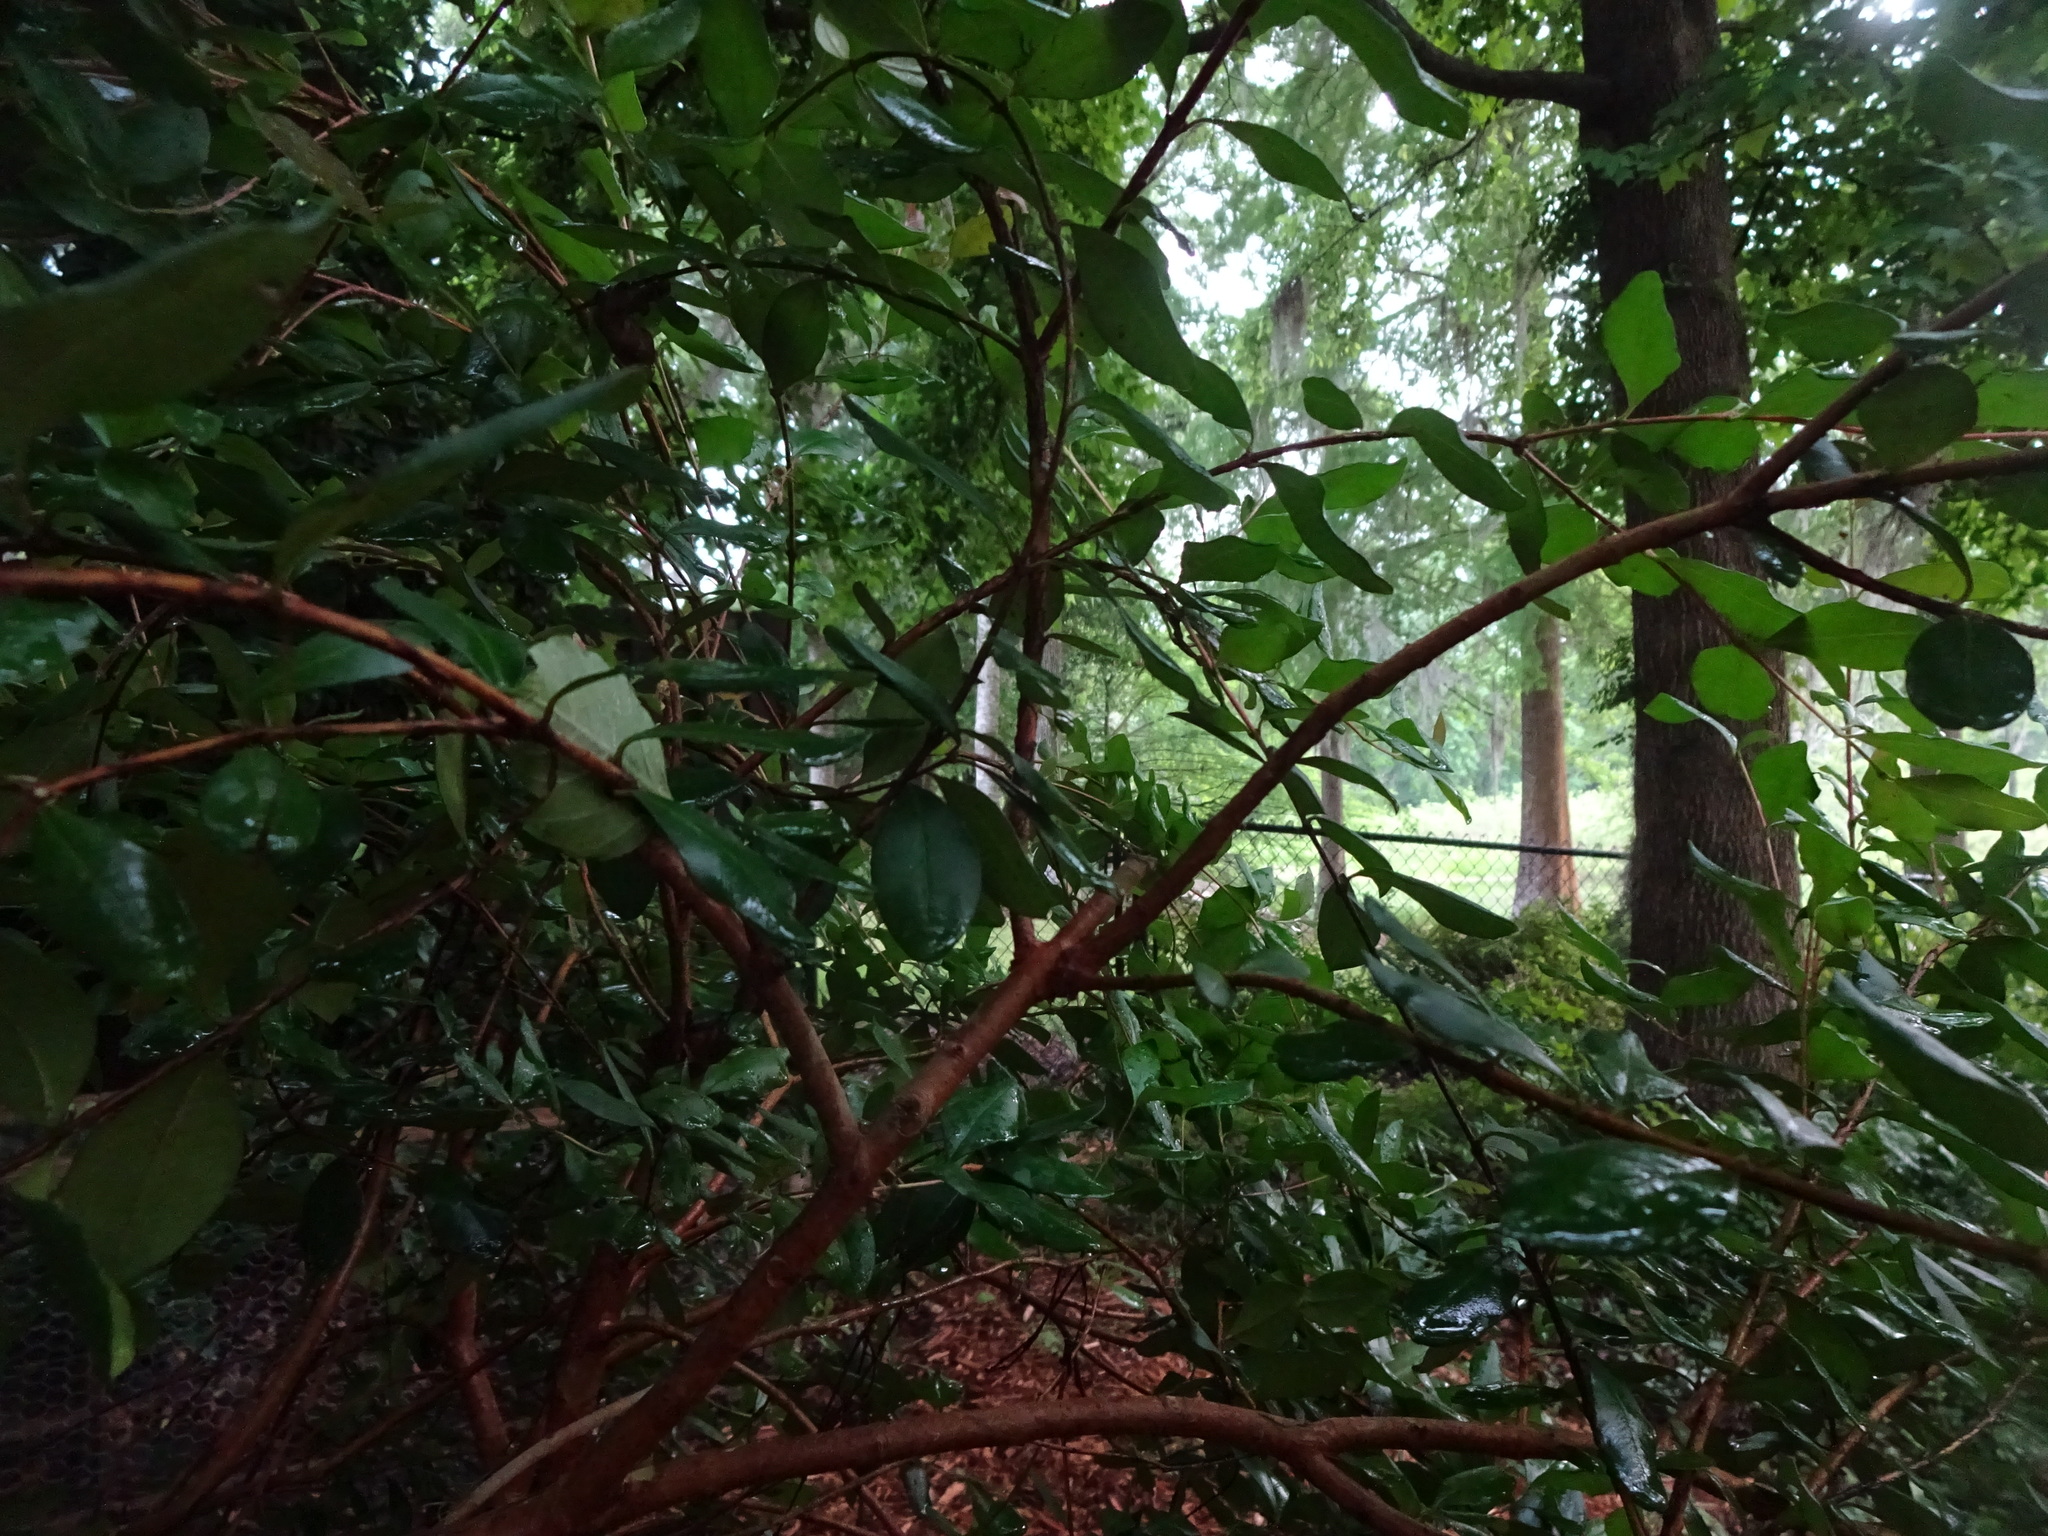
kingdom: Plantae
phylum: Tracheophyta
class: Magnoliopsida
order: Myrtales
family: Myrtaceae
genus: Myrcianthes
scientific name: Myrcianthes fragrans
